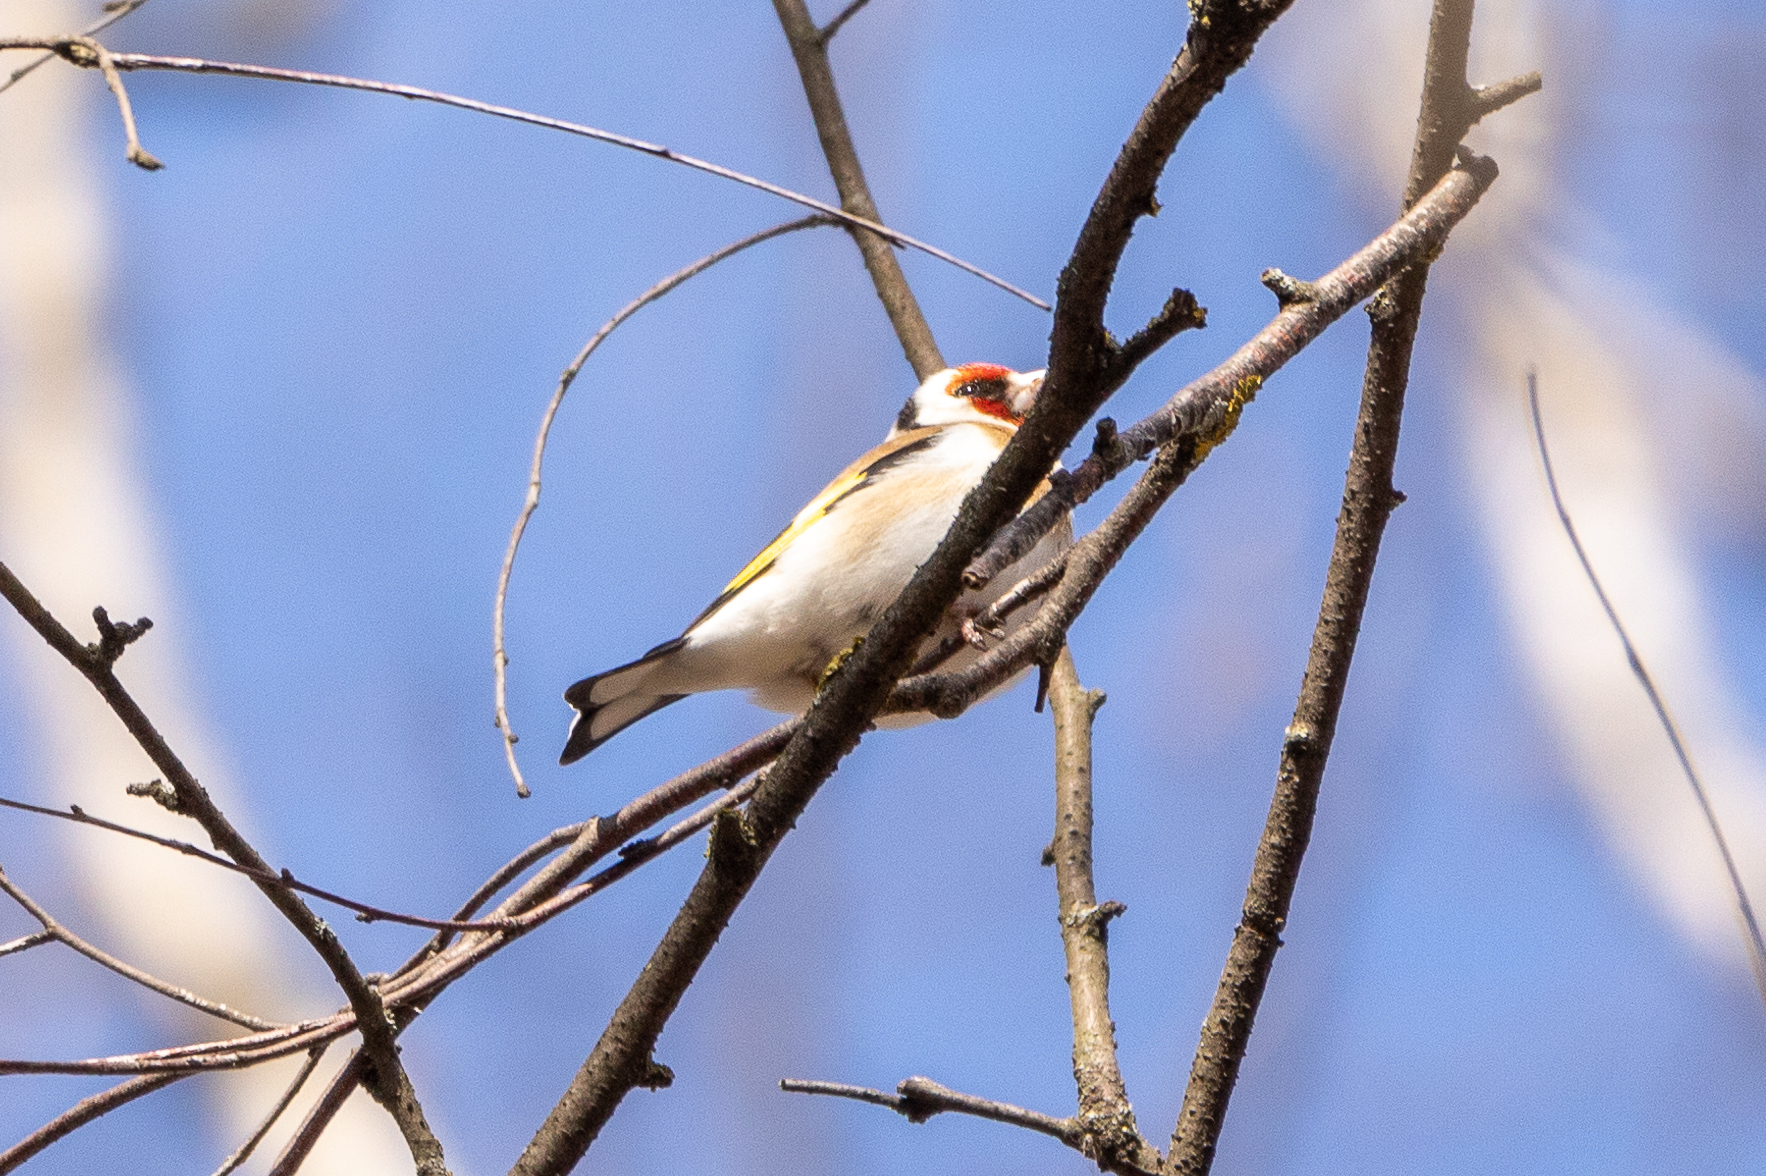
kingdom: Animalia
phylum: Chordata
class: Aves
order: Passeriformes
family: Fringillidae
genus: Carduelis
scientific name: Carduelis carduelis
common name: European goldfinch
